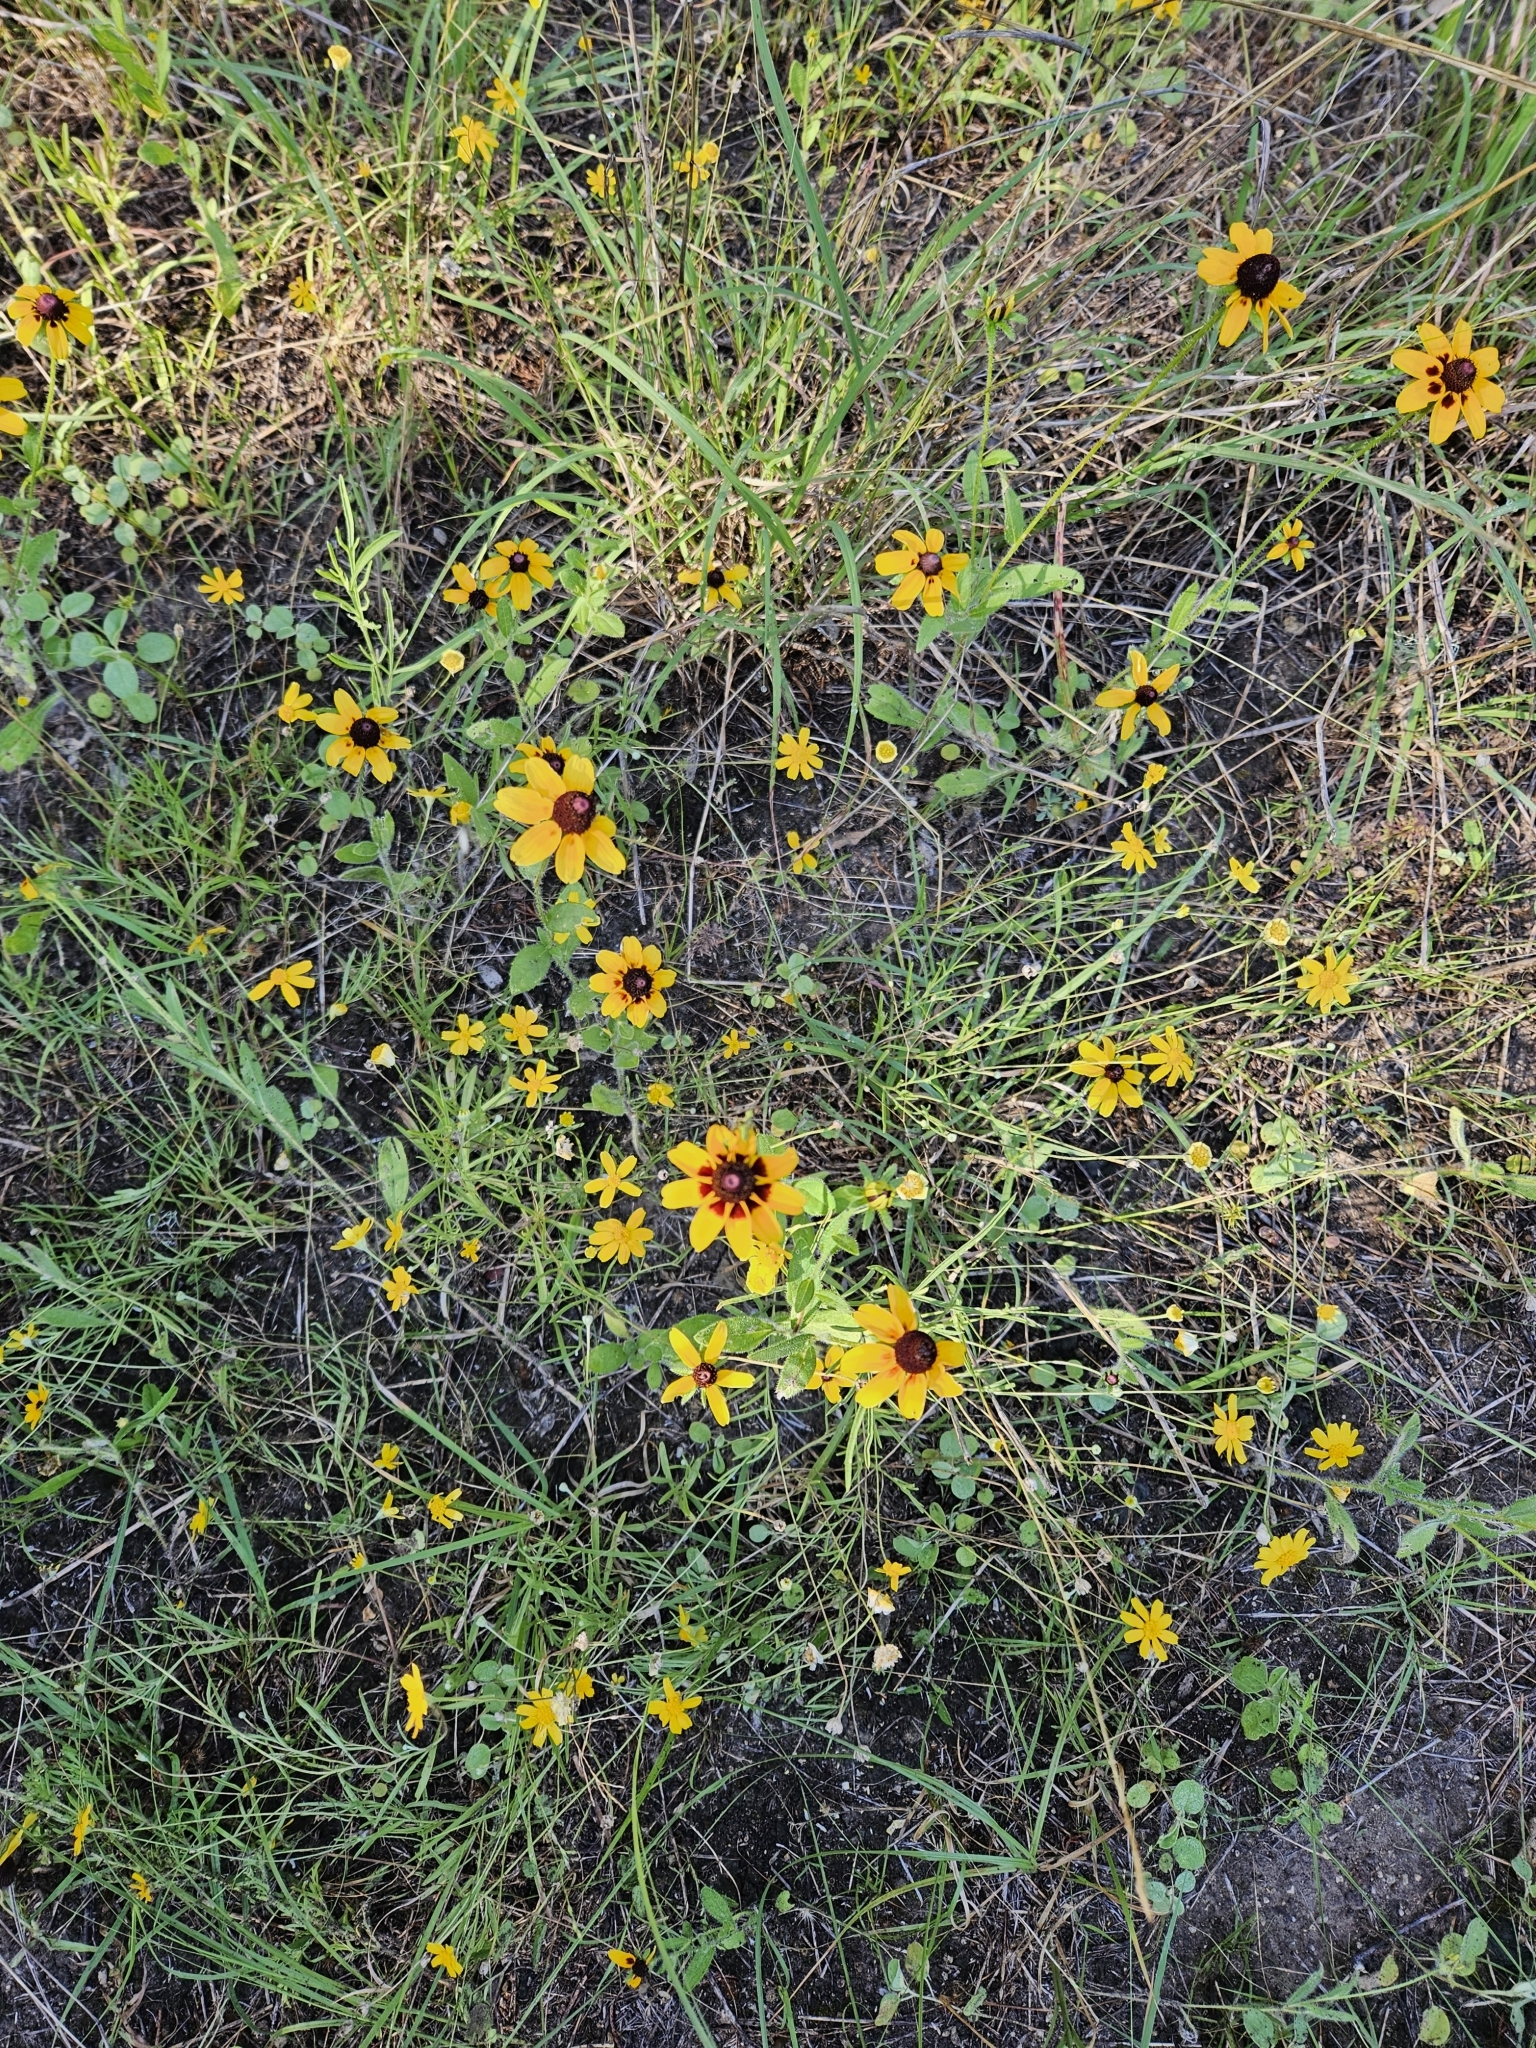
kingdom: Plantae
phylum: Tracheophyta
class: Magnoliopsida
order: Asterales
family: Asteraceae
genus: Rudbeckia
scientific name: Rudbeckia hirta
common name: Black-eyed-susan
